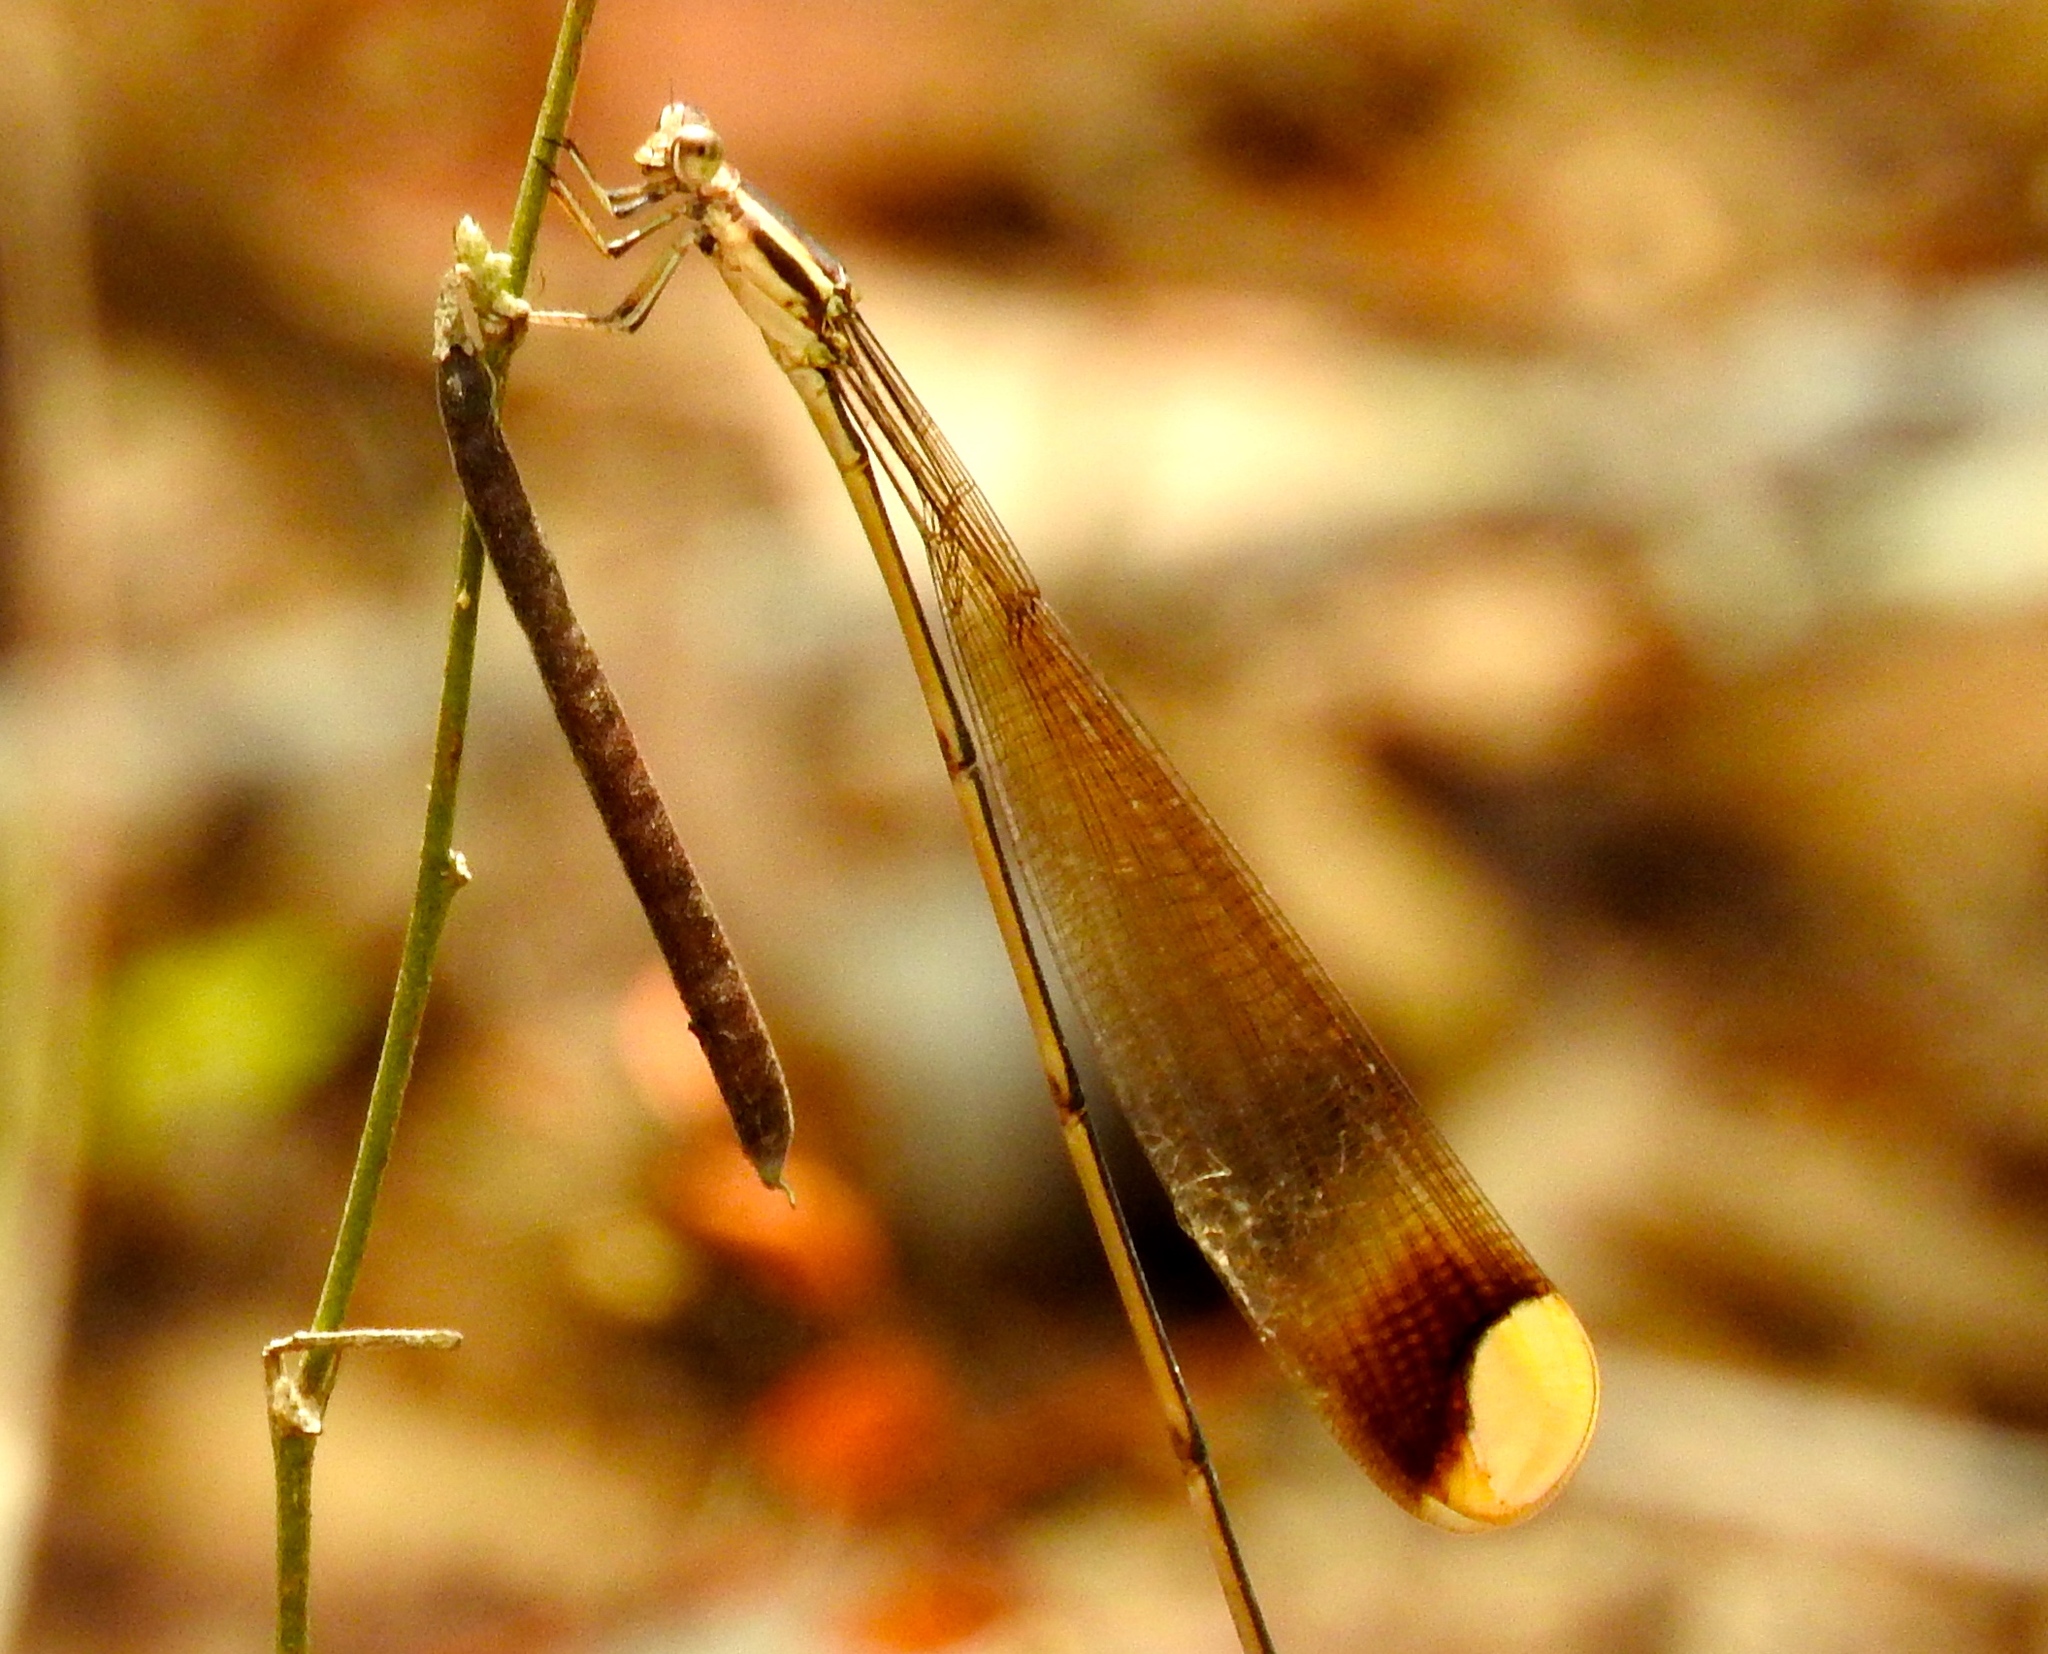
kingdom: Animalia
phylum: Arthropoda
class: Insecta
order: Odonata
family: Coenagrionidae
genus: Mecistogaster
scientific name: Mecistogaster ornata
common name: Ornate helicopter
